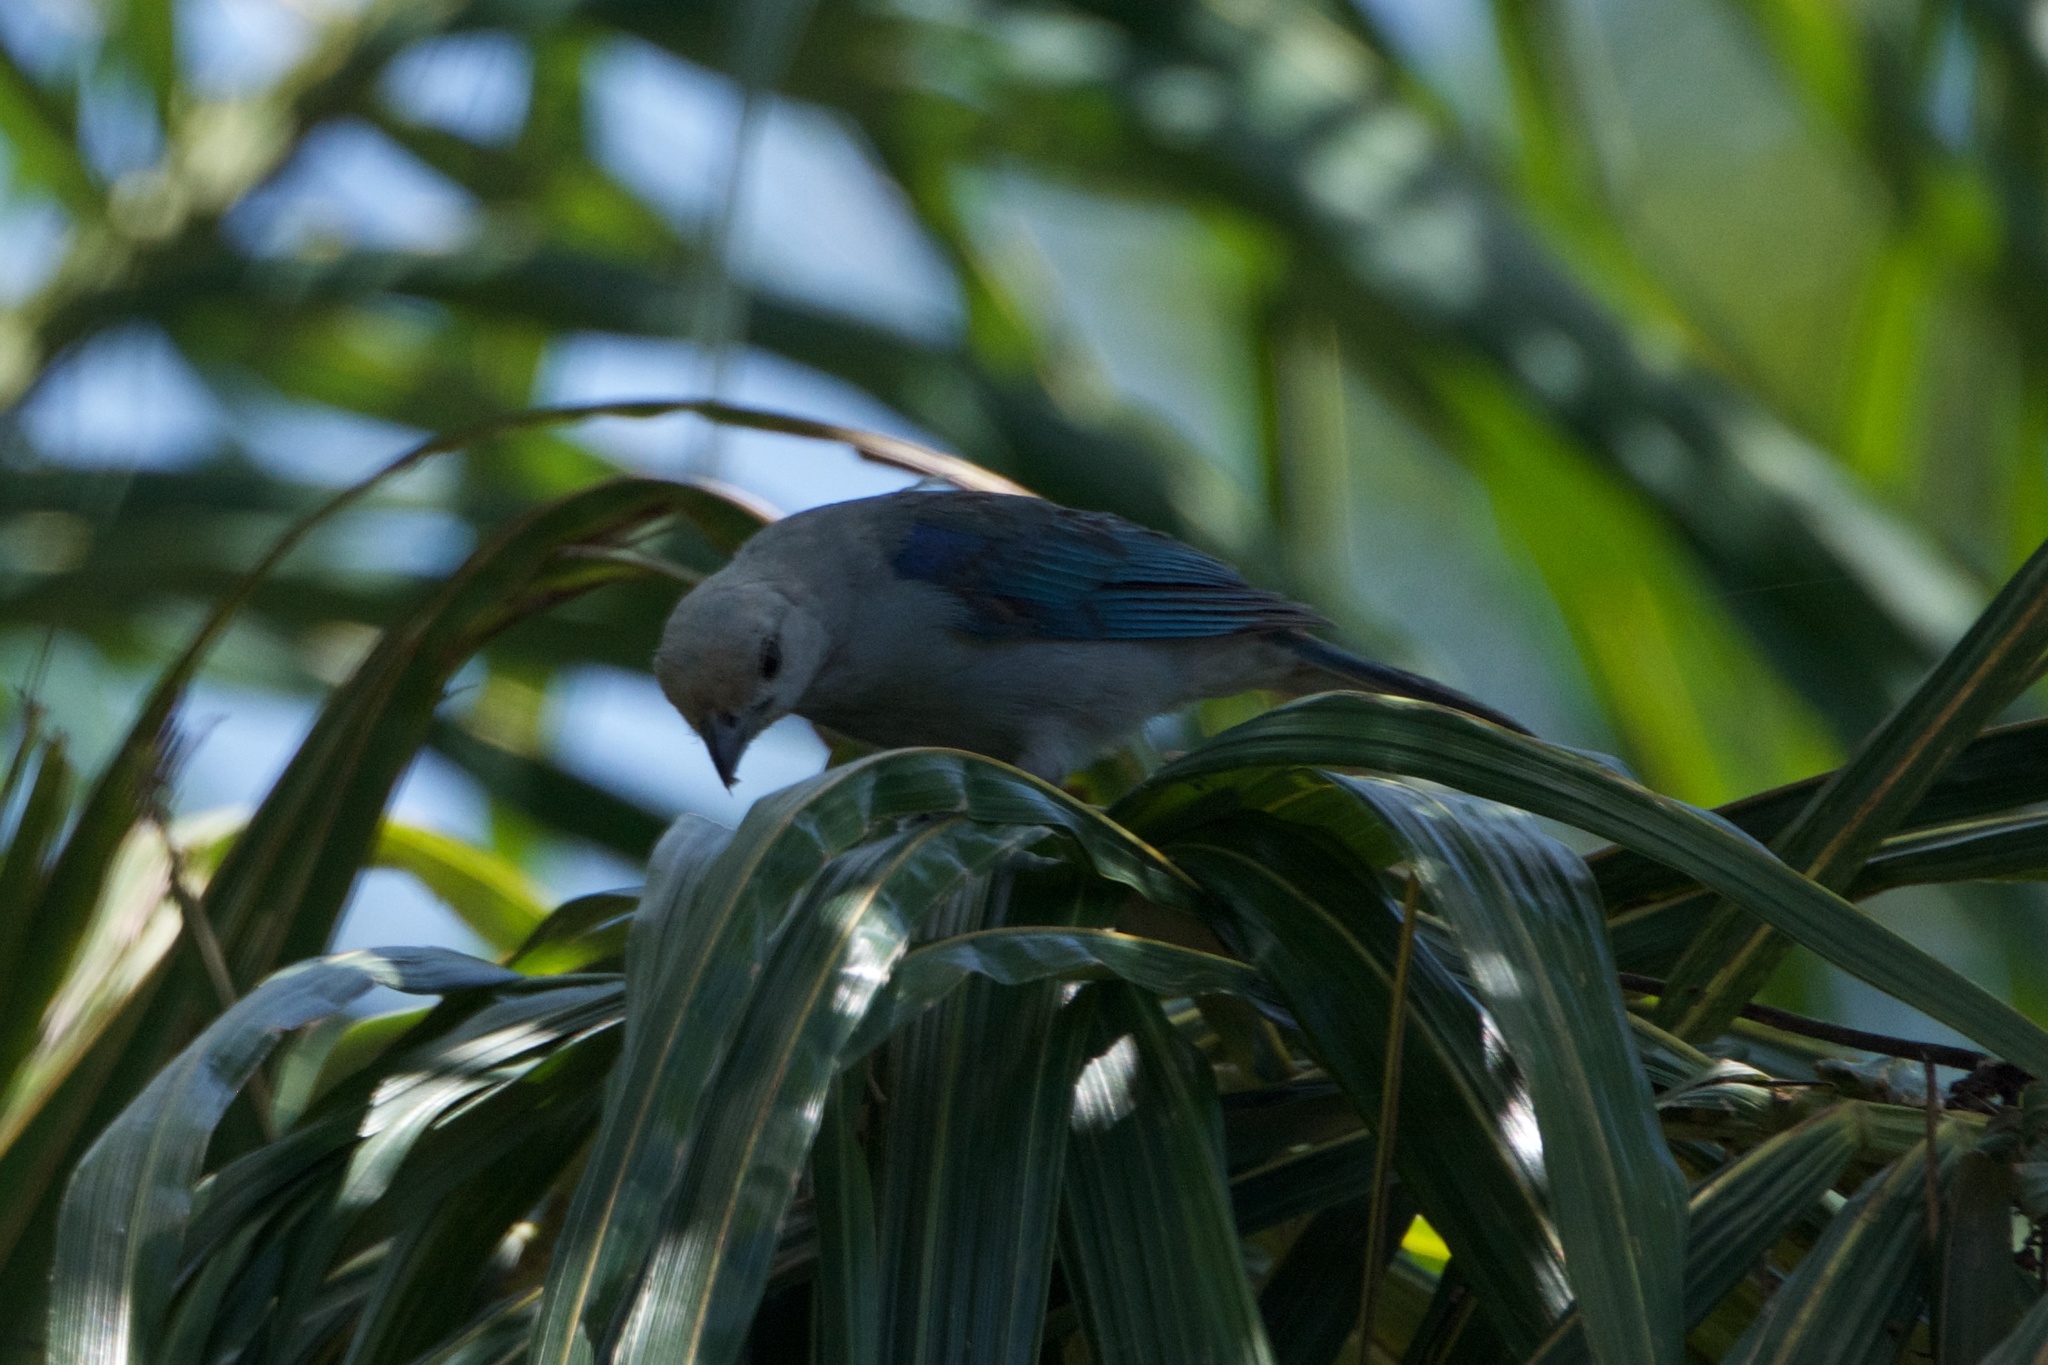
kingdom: Animalia
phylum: Chordata
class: Aves
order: Passeriformes
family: Thraupidae
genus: Thraupis
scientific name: Thraupis episcopus
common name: Blue-grey tanager
